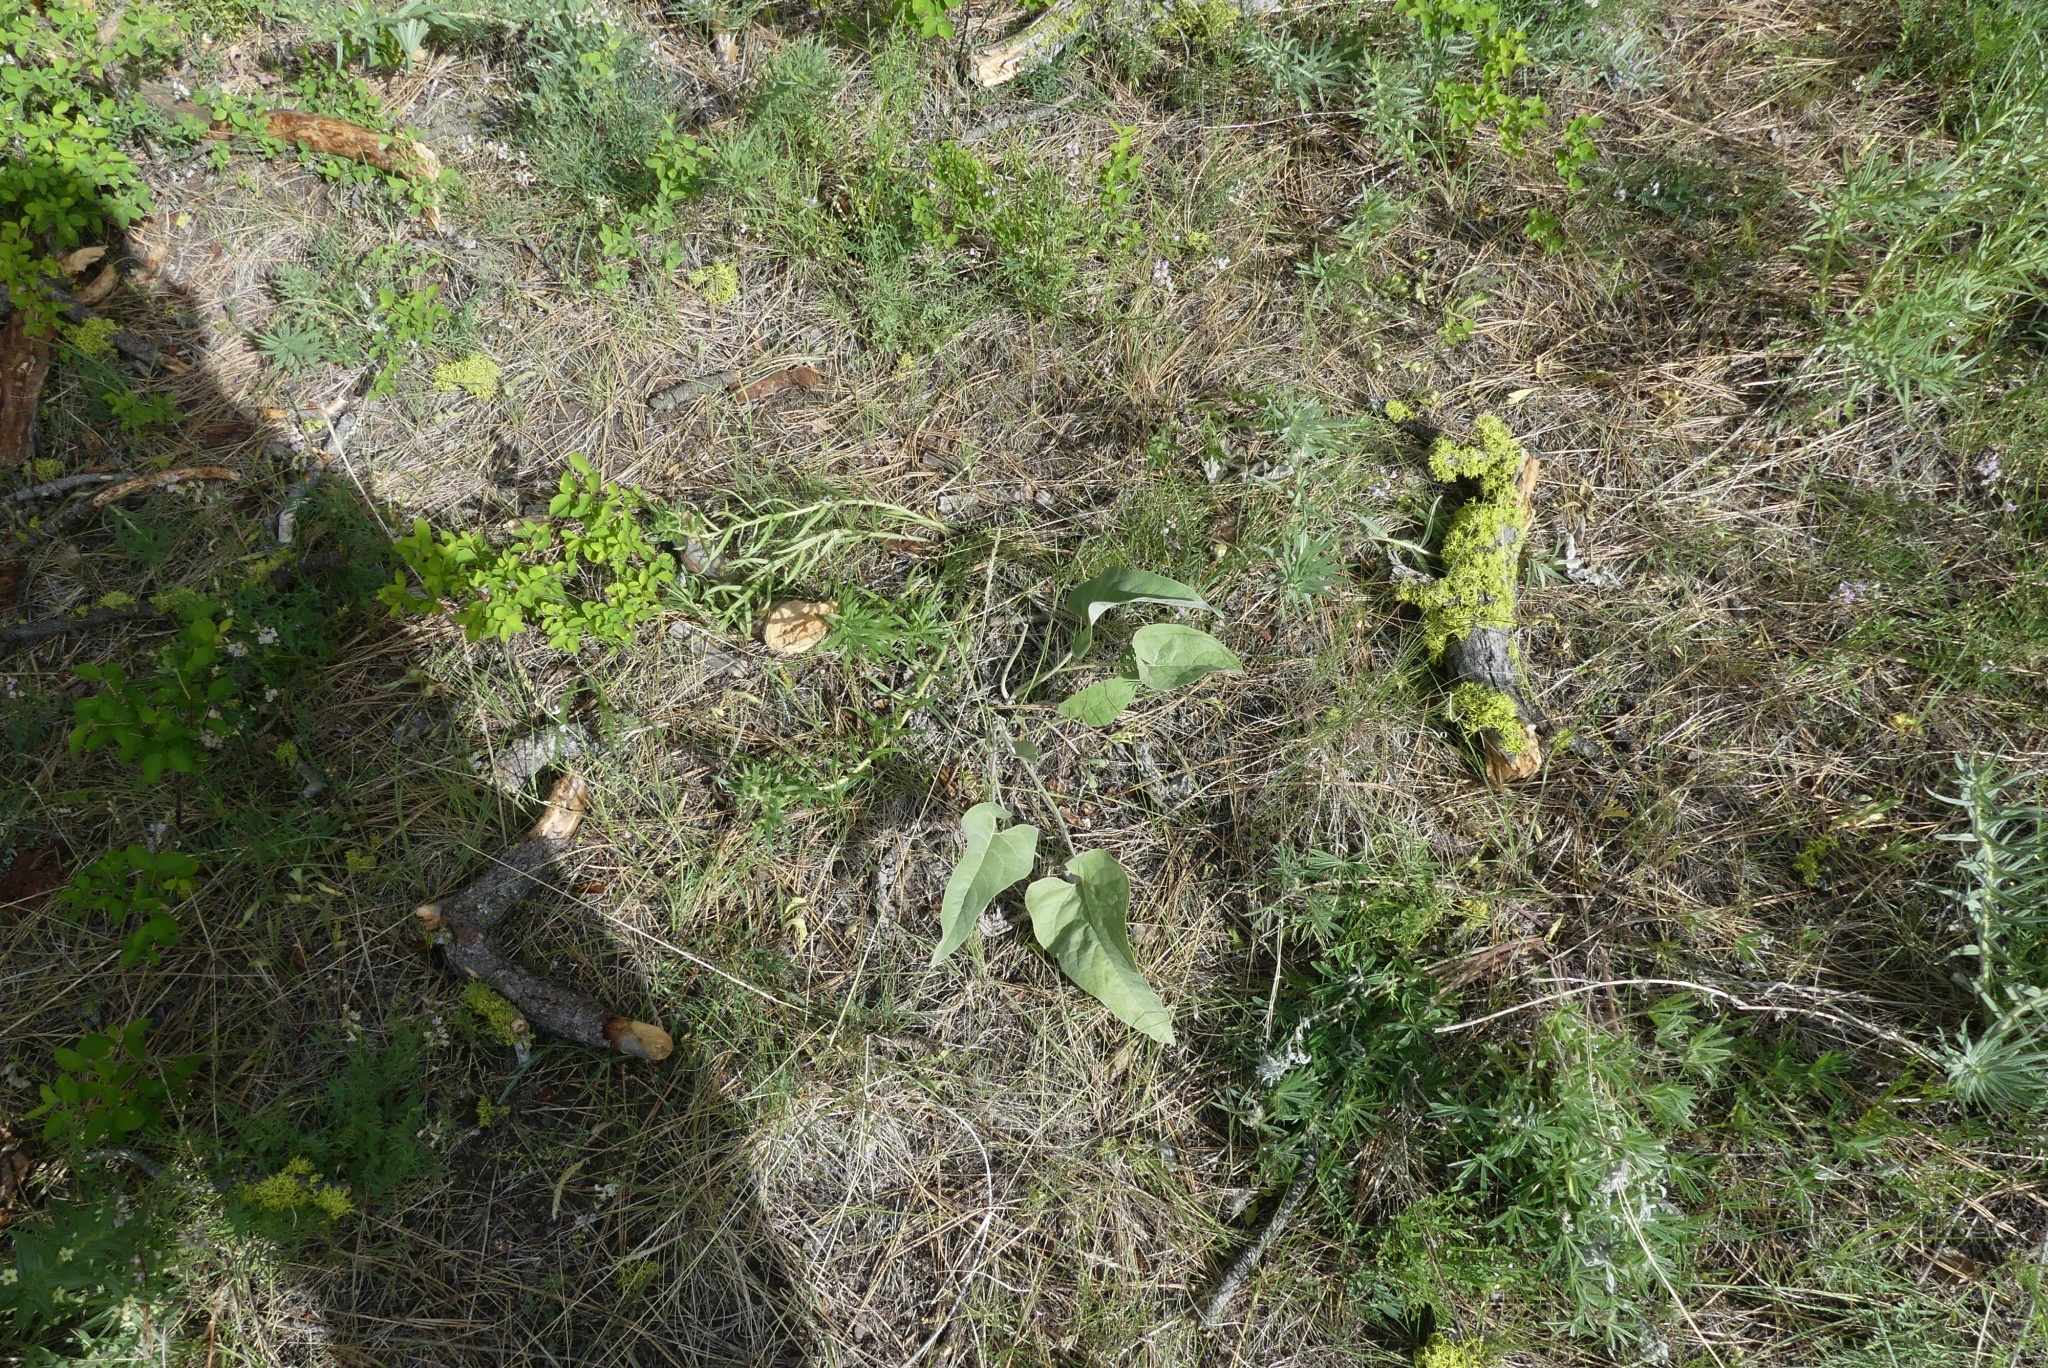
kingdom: Plantae
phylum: Tracheophyta
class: Magnoliopsida
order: Asterales
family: Asteraceae
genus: Wyethia
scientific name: Wyethia sagittata
